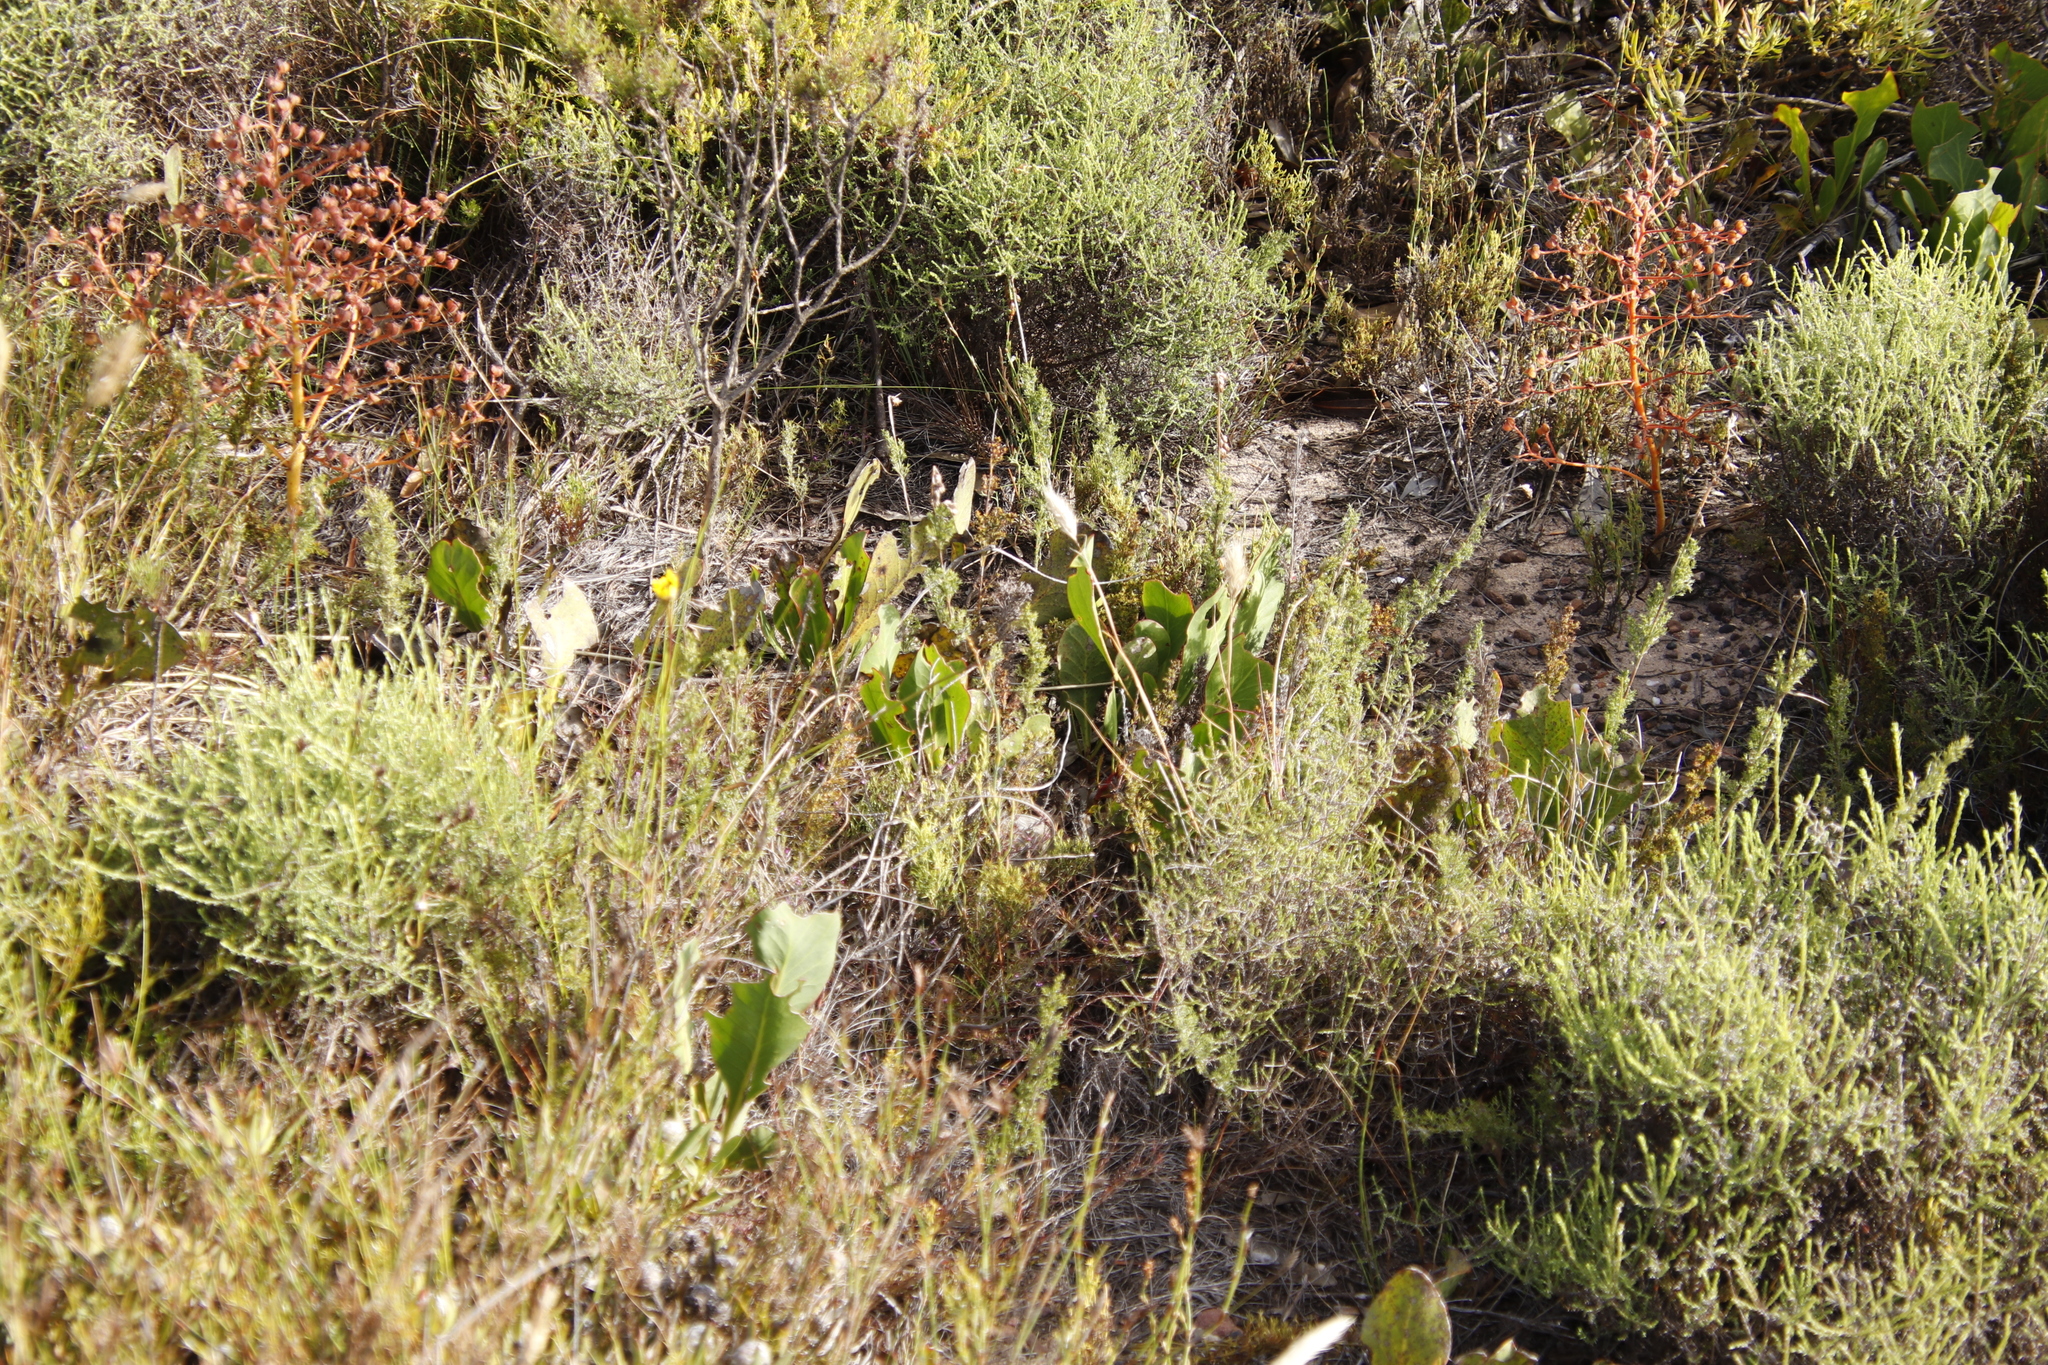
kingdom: Plantae
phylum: Tracheophyta
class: Magnoliopsida
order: Proteales
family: Proteaceae
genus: Protea
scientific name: Protea acaulos
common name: Common ground sugarbush
